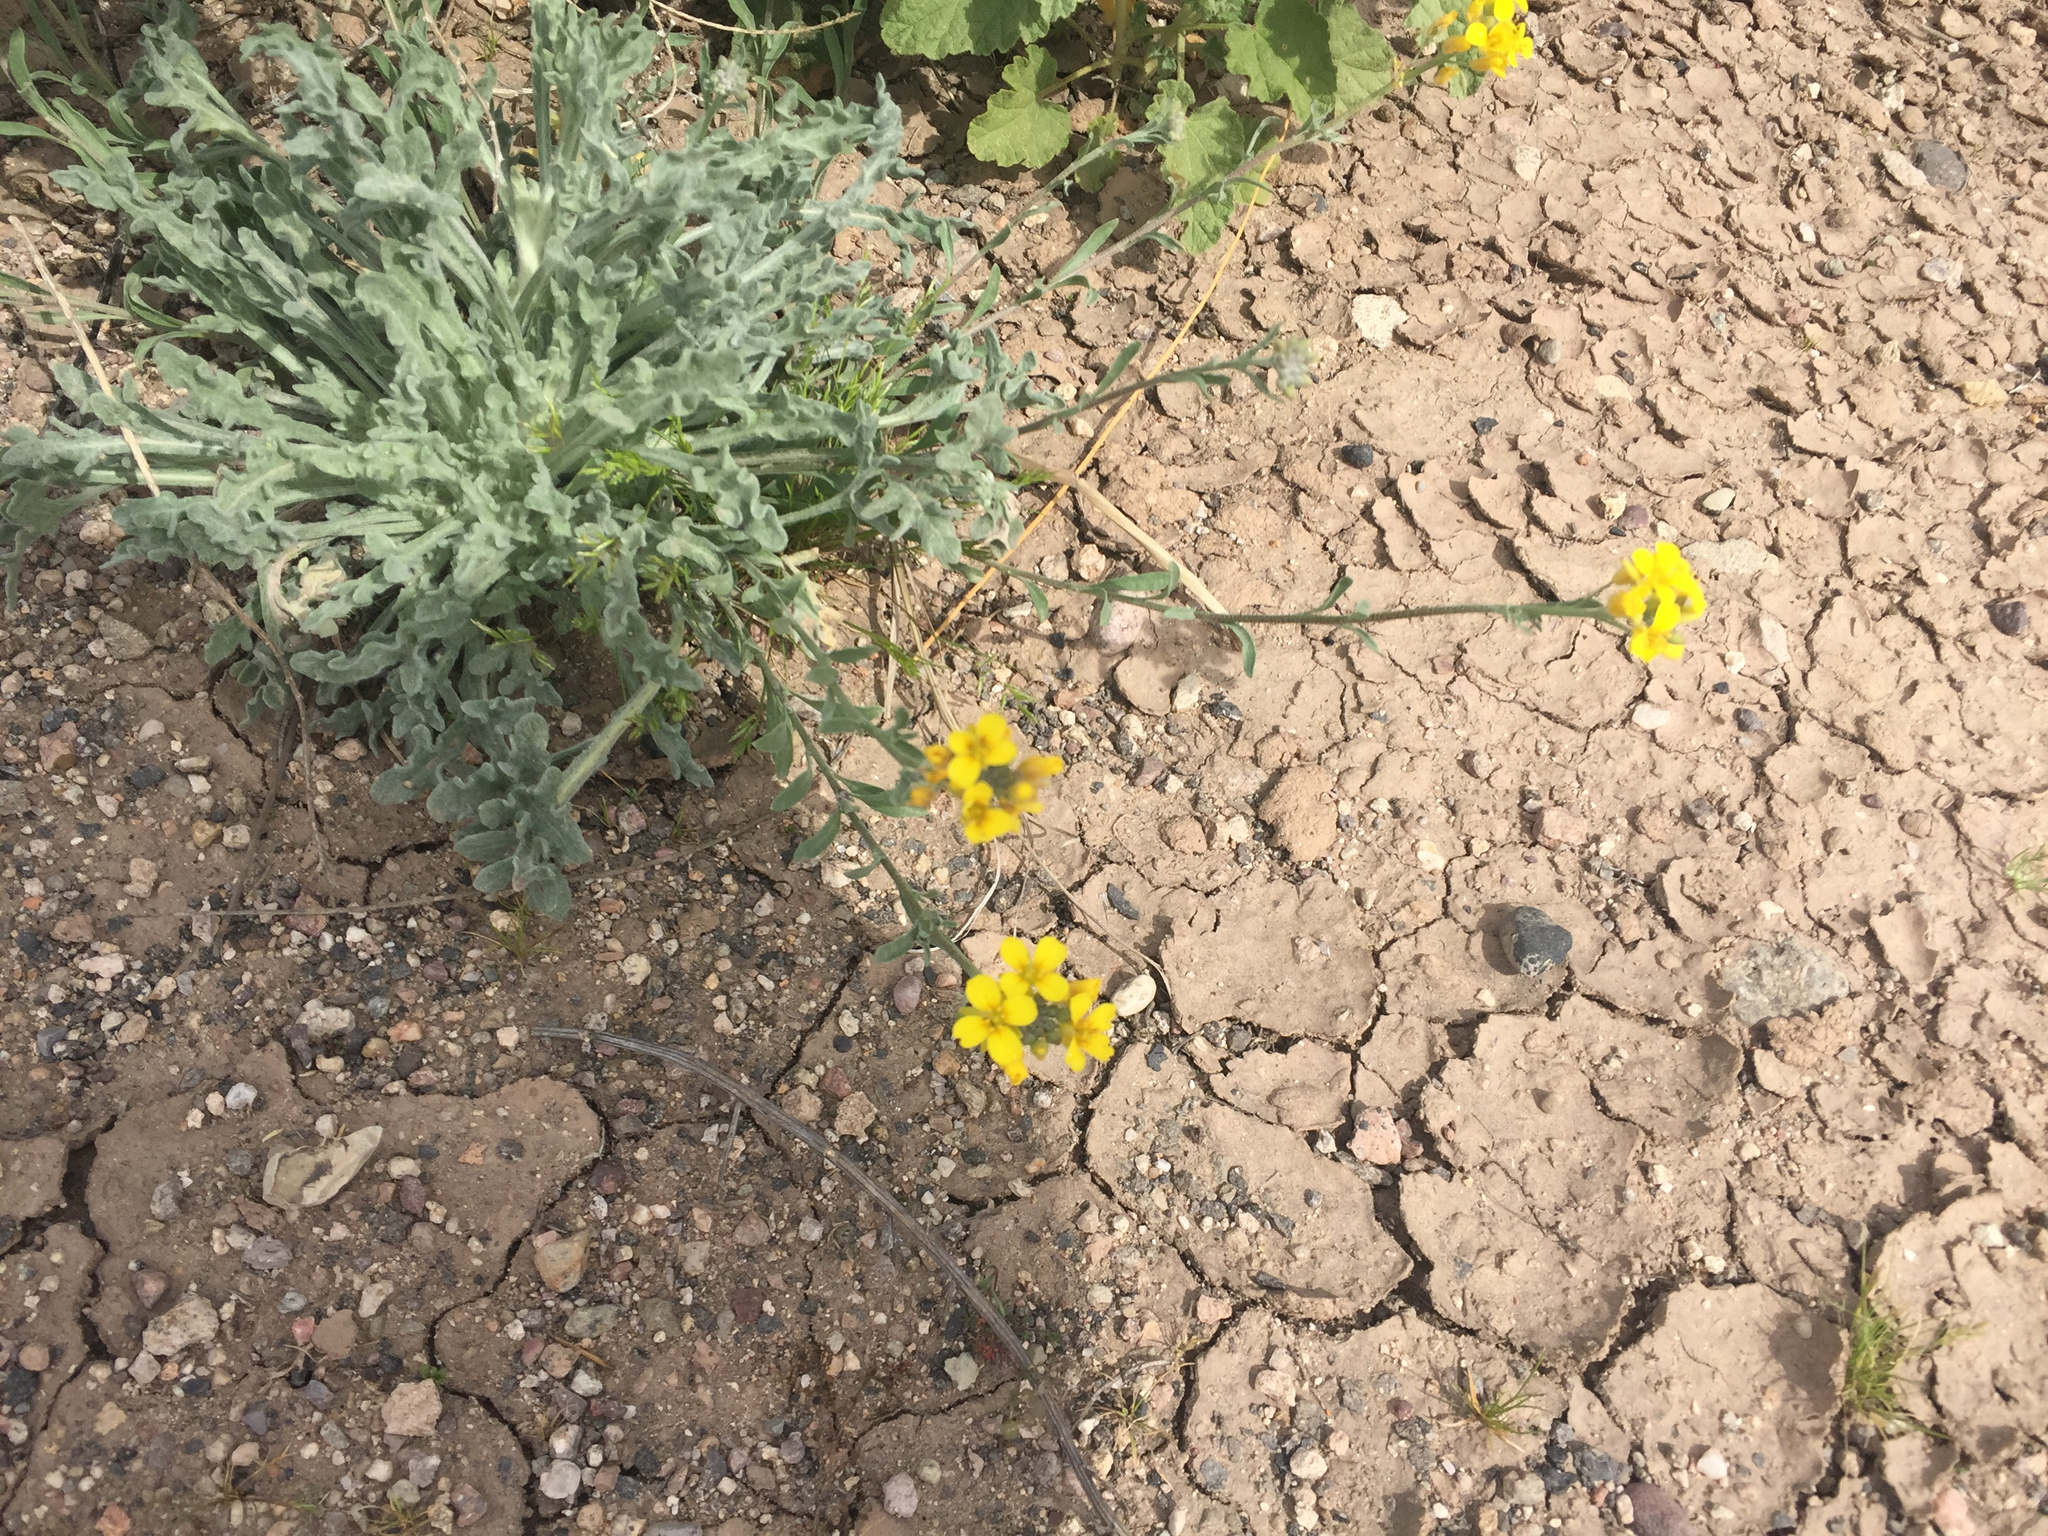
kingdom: Plantae
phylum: Tracheophyta
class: Magnoliopsida
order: Brassicales
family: Brassicaceae
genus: Physaria
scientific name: Physaria gordonii
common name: Gordon's bladderpod
